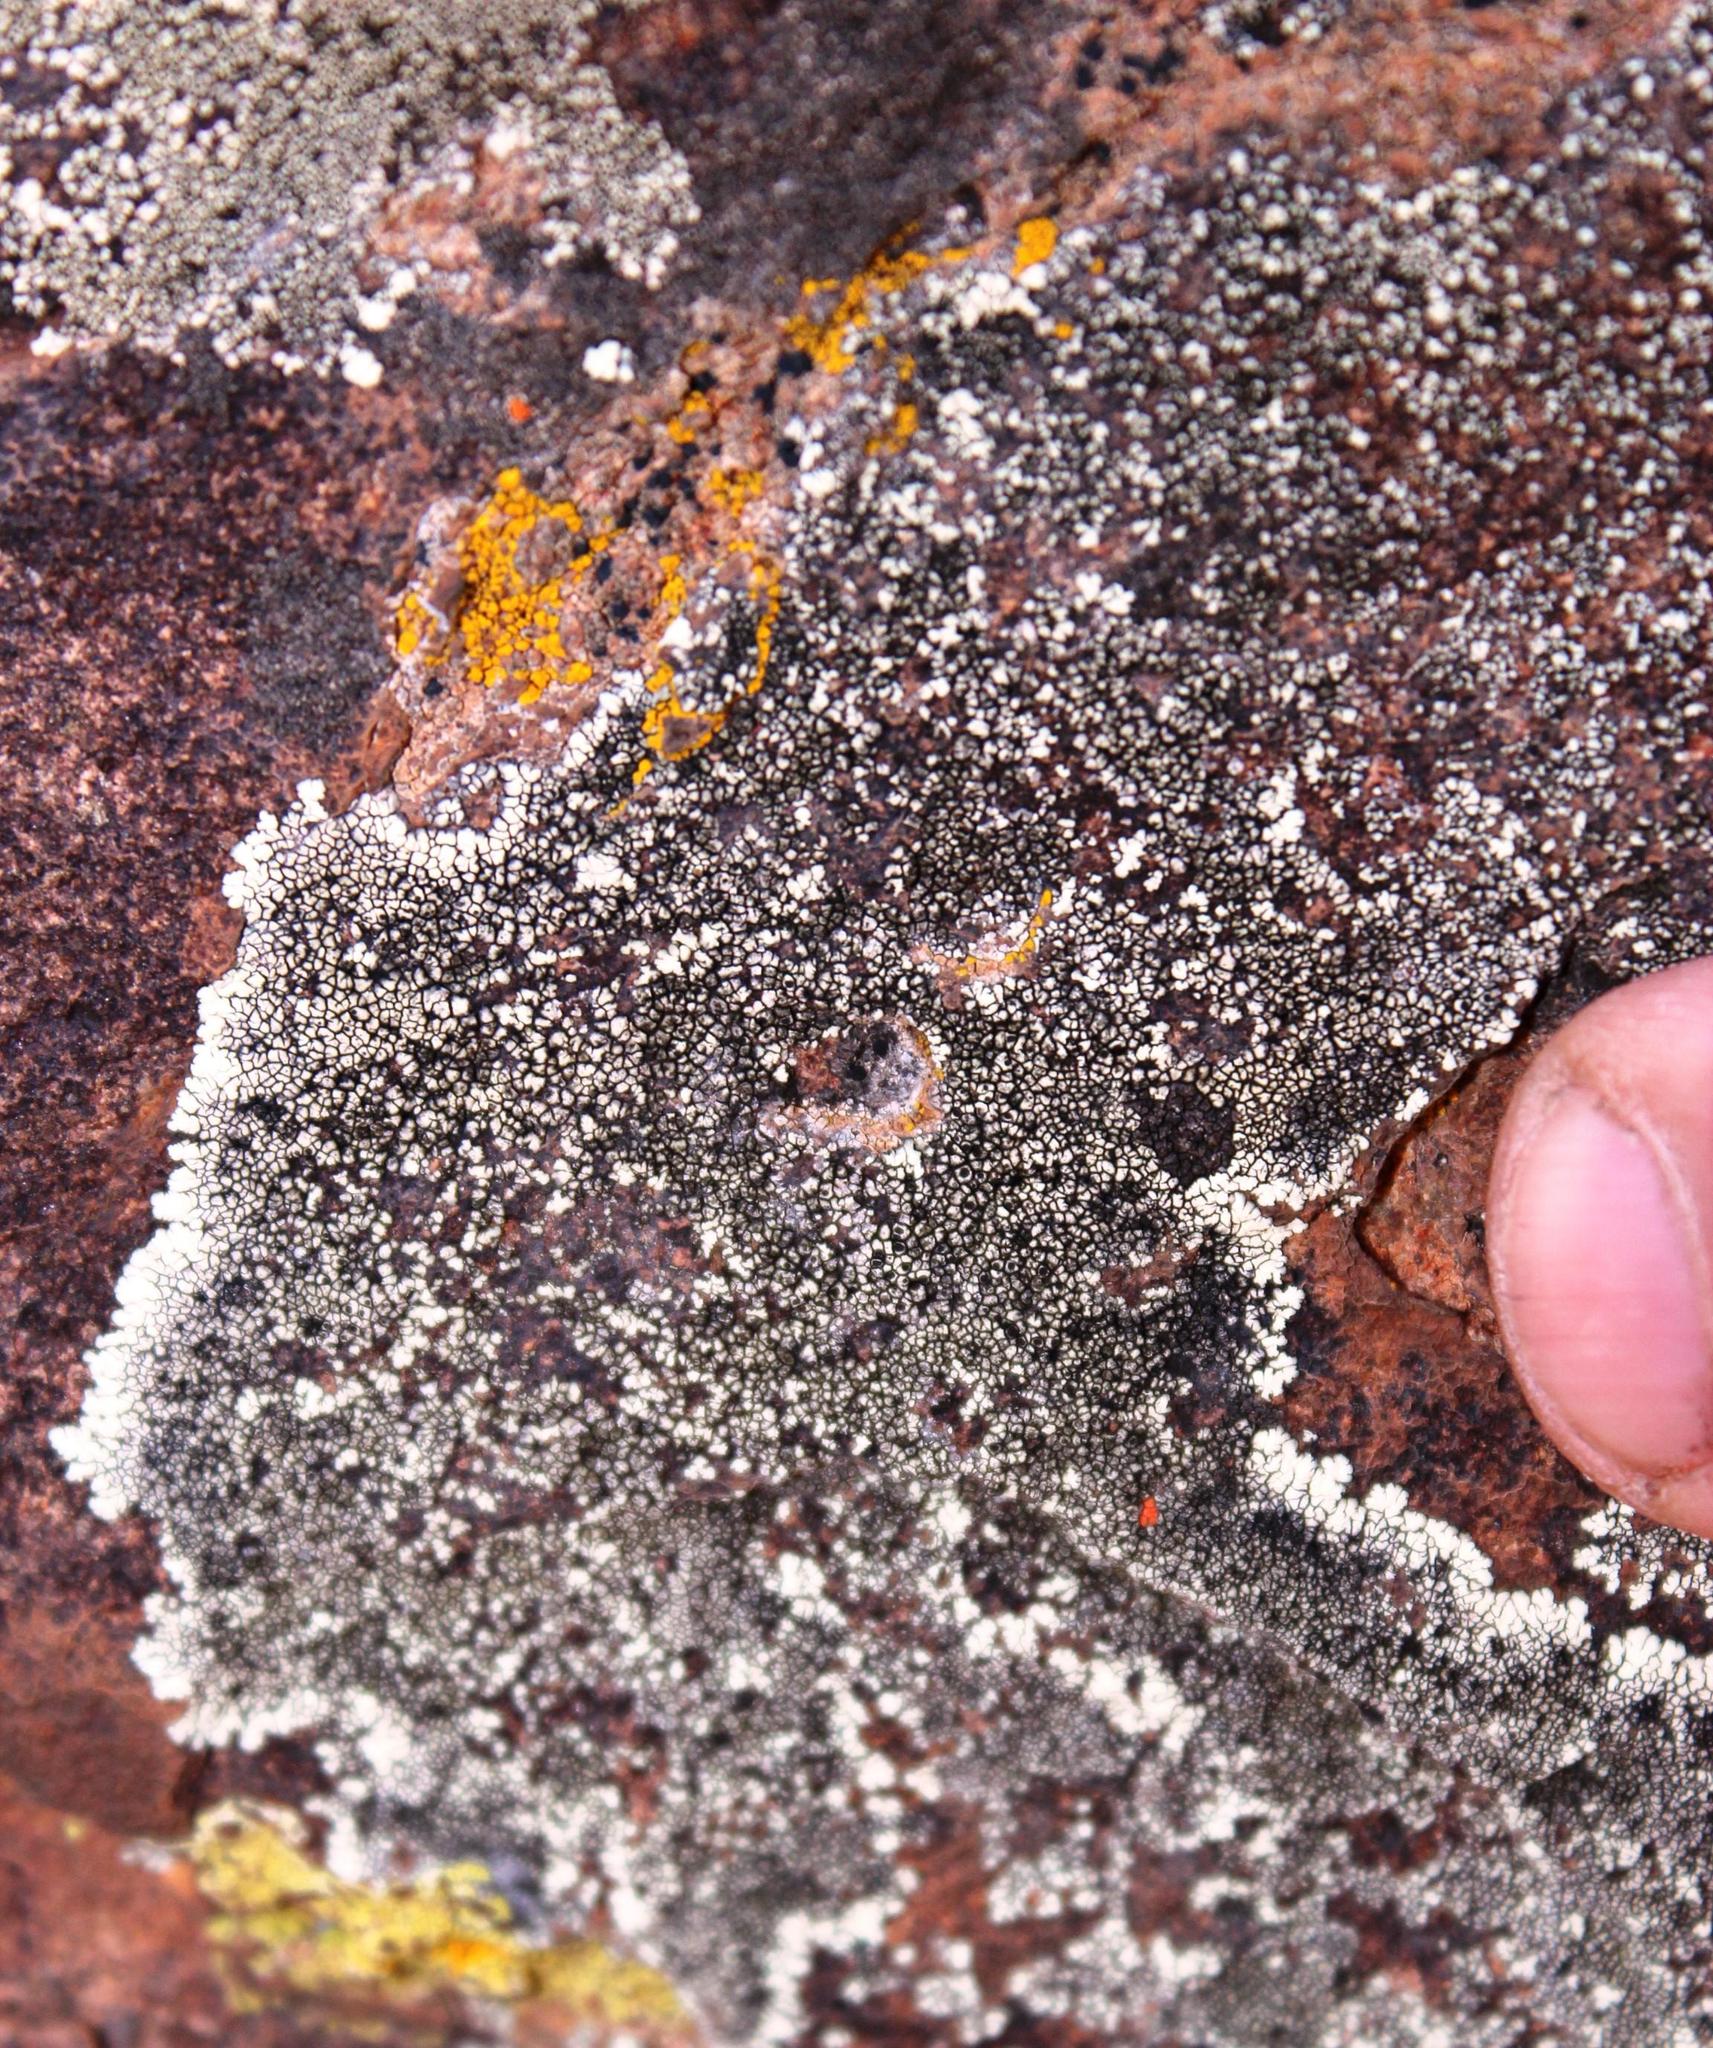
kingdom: Fungi
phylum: Ascomycota
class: Lecanoromycetes
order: Caliciales
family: Caliciaceae
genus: Dimelaena
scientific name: Dimelaena australiensis
